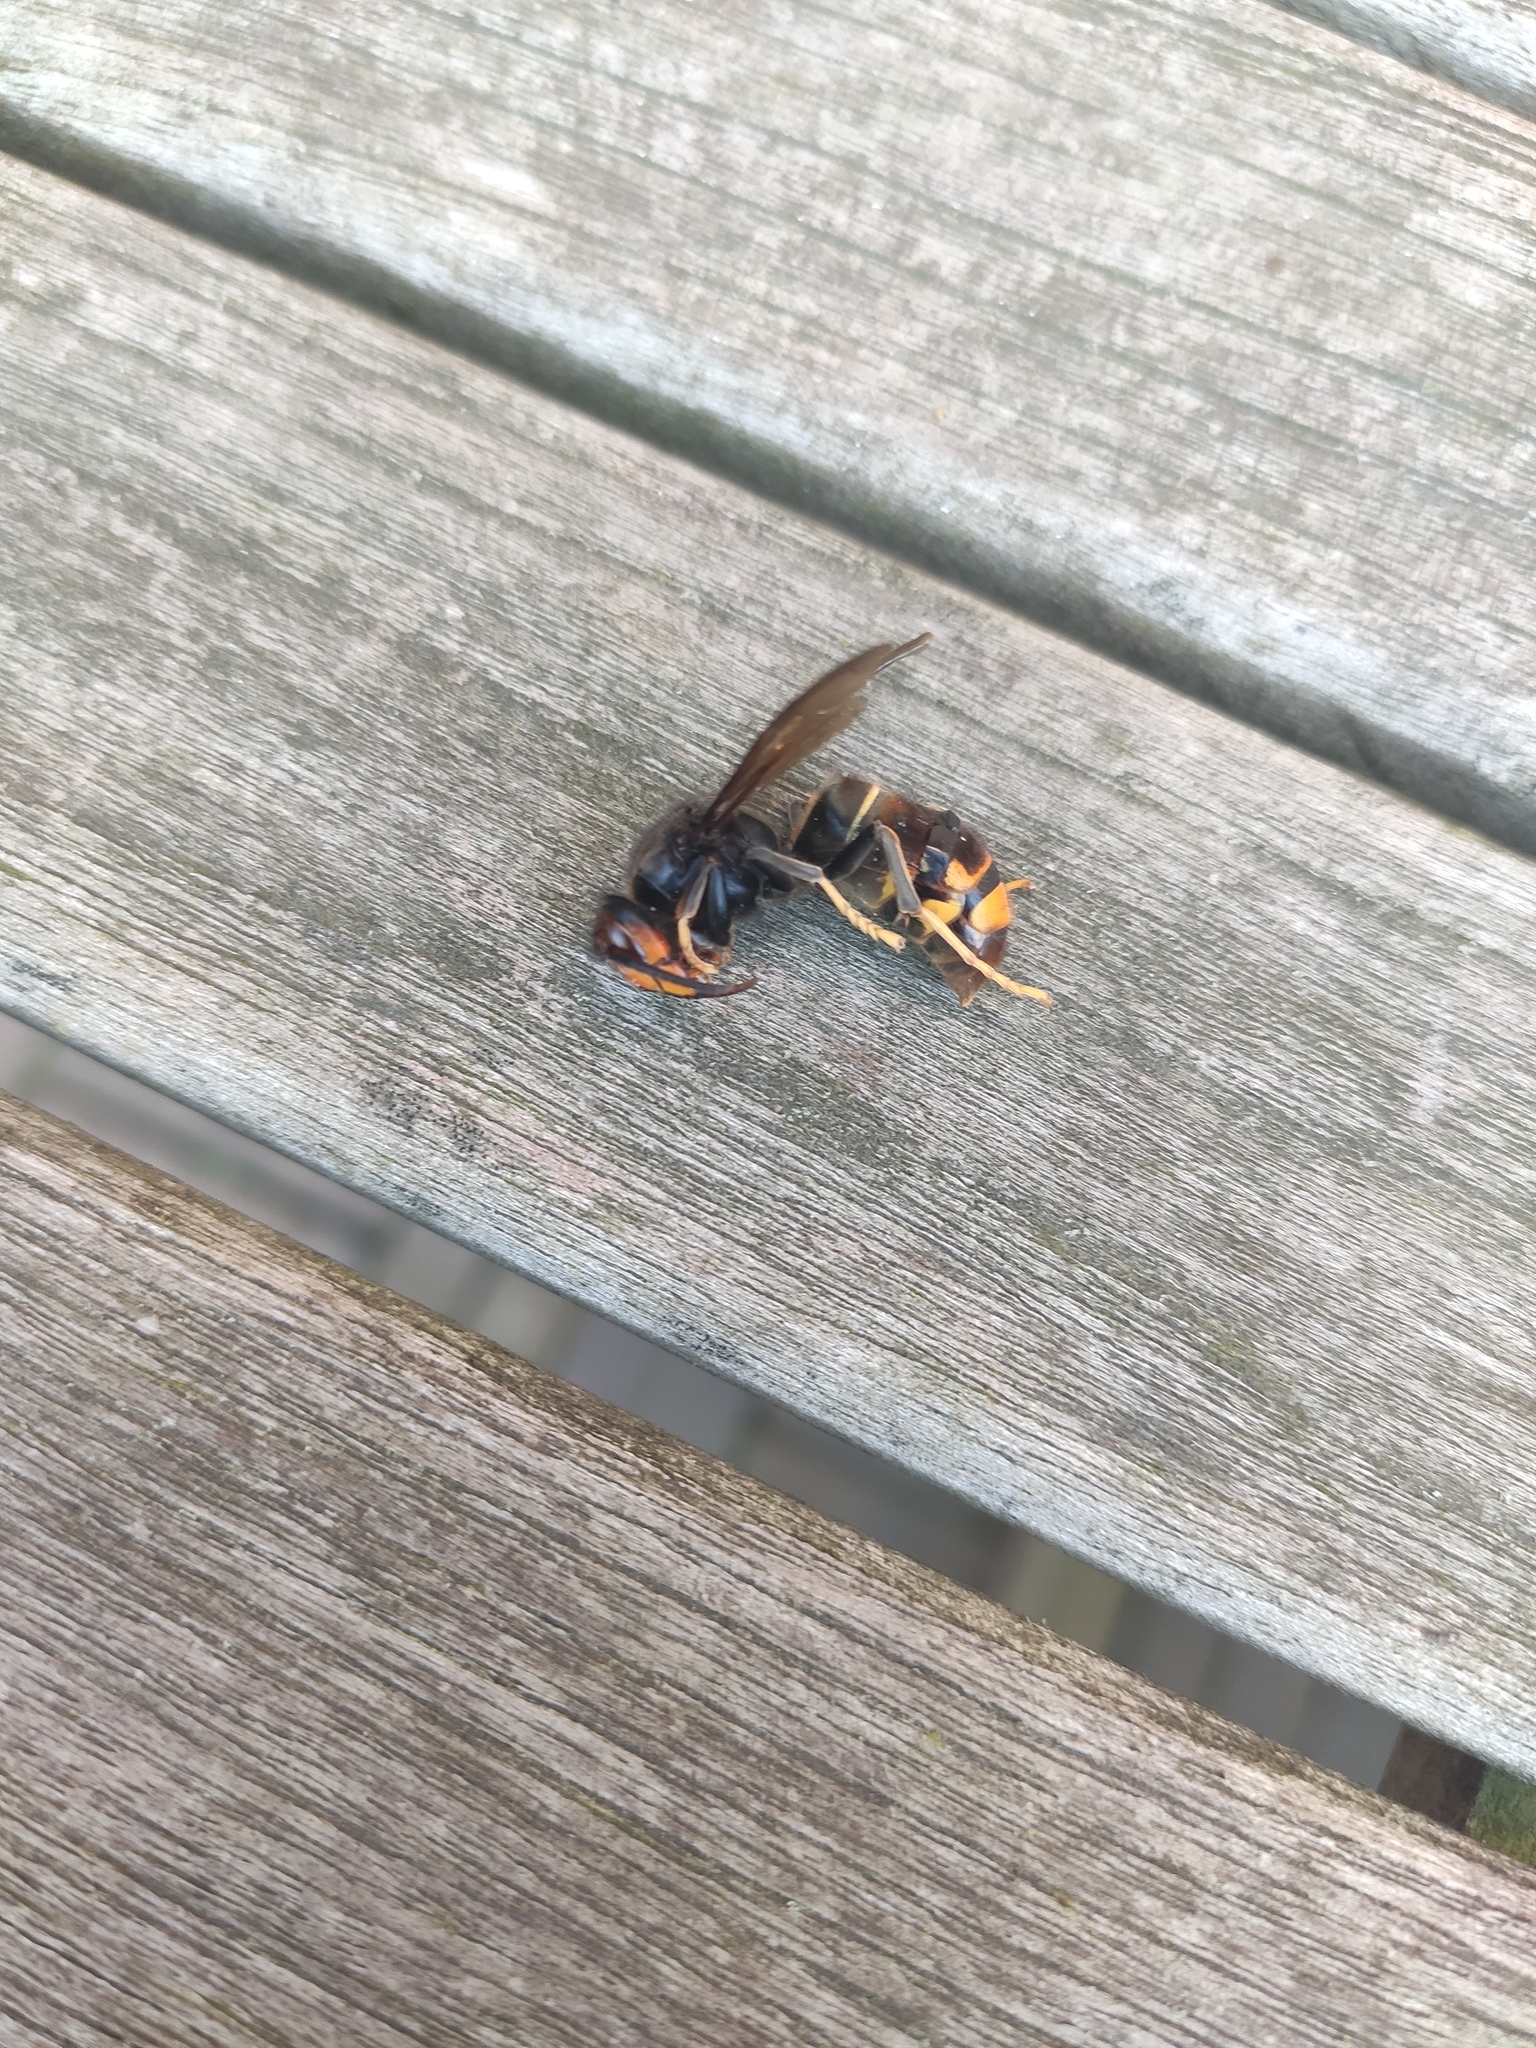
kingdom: Animalia
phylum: Arthropoda
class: Insecta
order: Hymenoptera
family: Vespidae
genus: Vespa
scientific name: Vespa velutina
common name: Asian hornet
